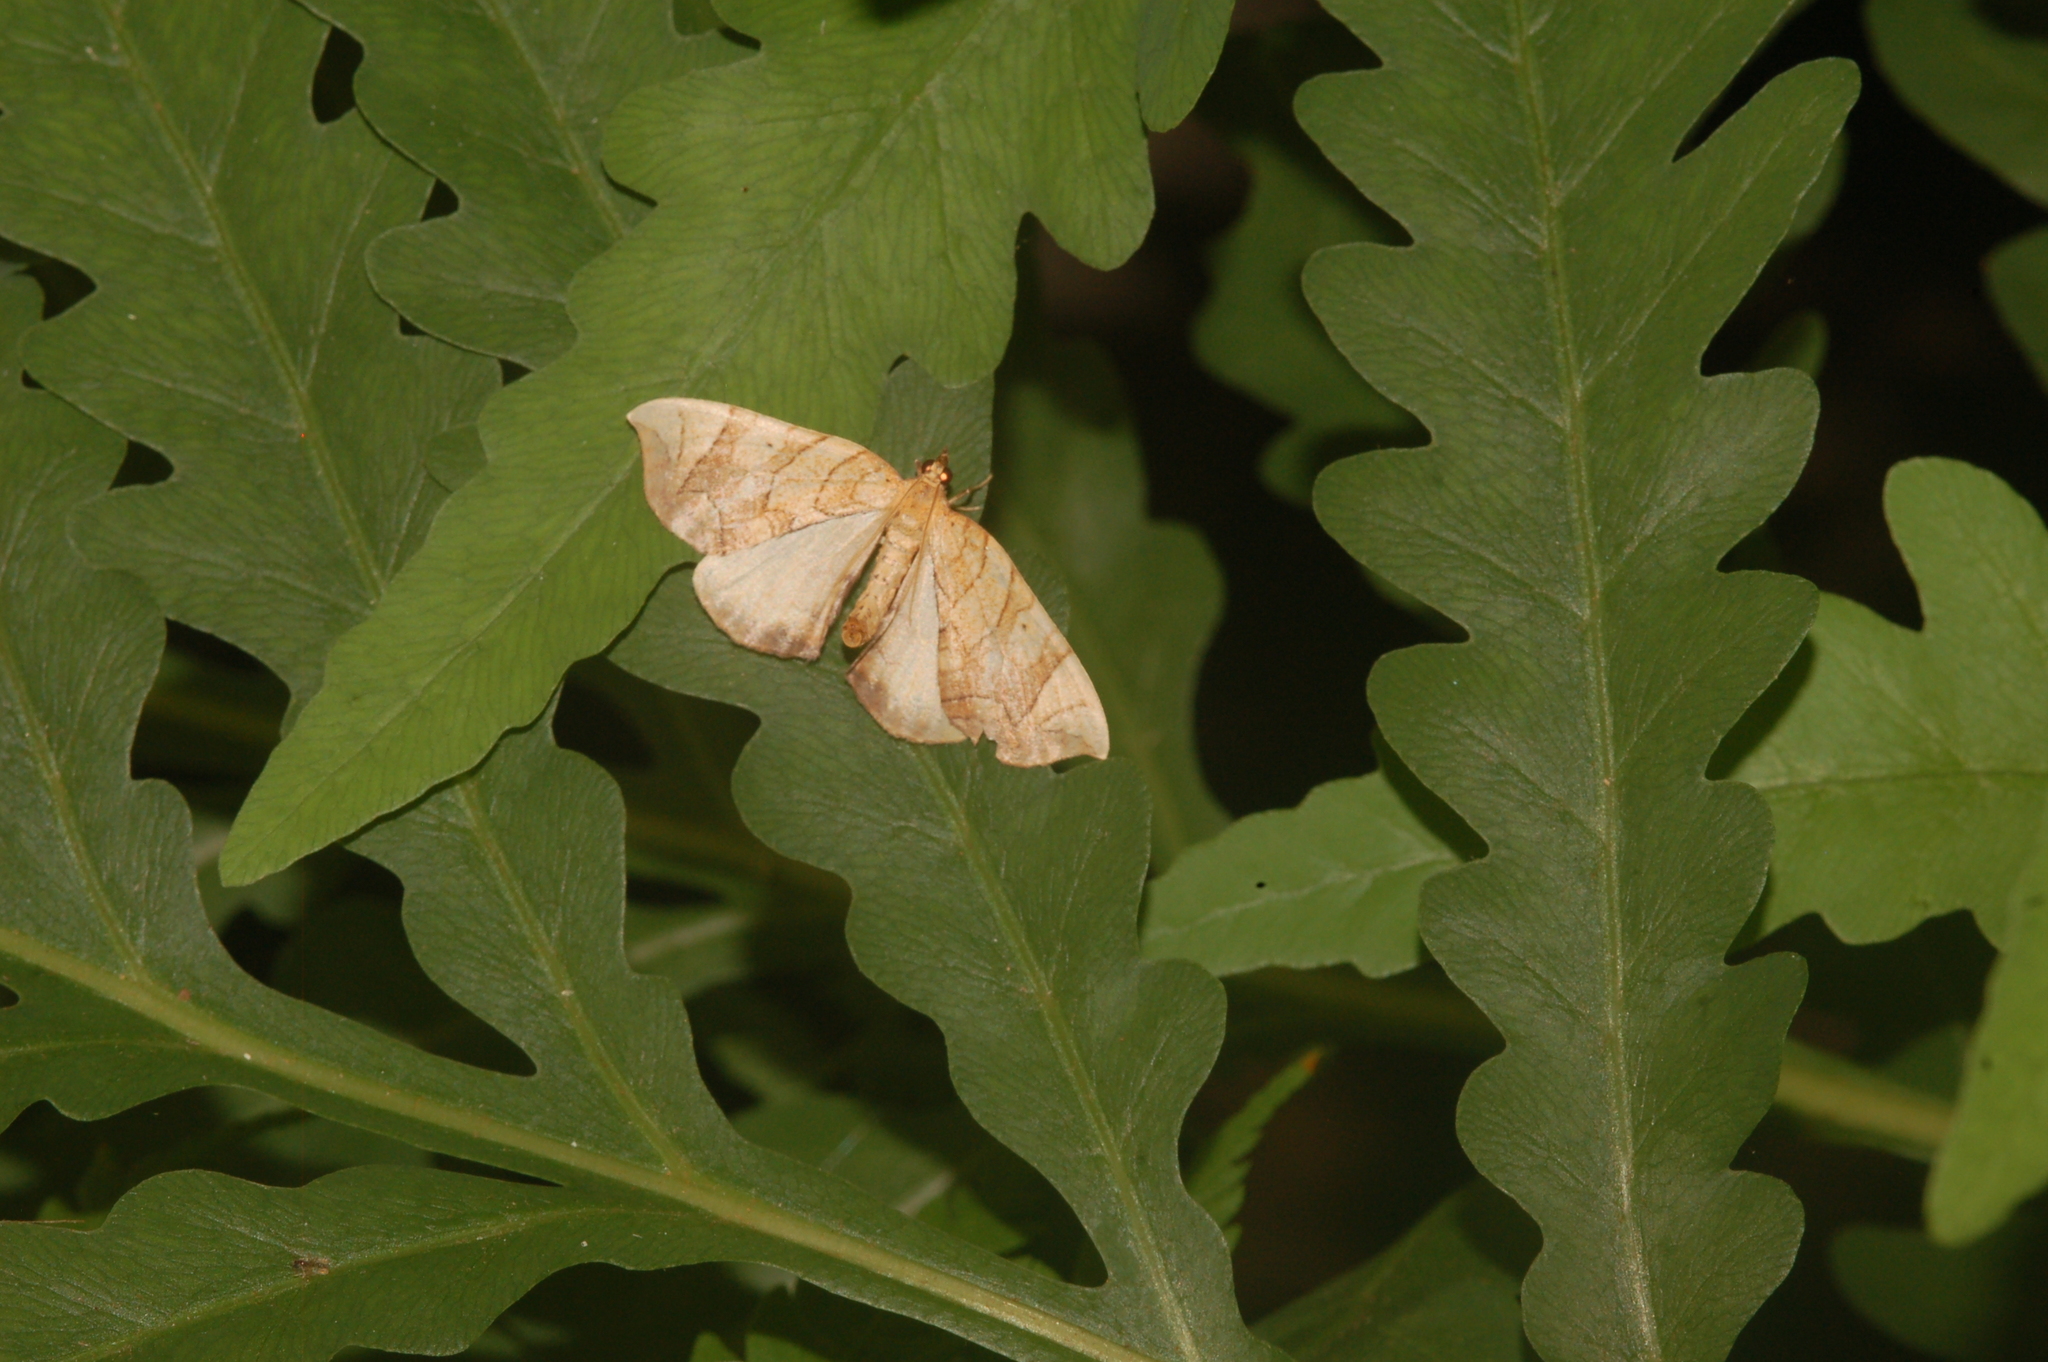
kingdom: Animalia
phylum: Arthropoda
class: Insecta
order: Lepidoptera
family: Geometridae
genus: Eulithis
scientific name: Eulithis gracilineata
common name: Greater grapevine looper moth
